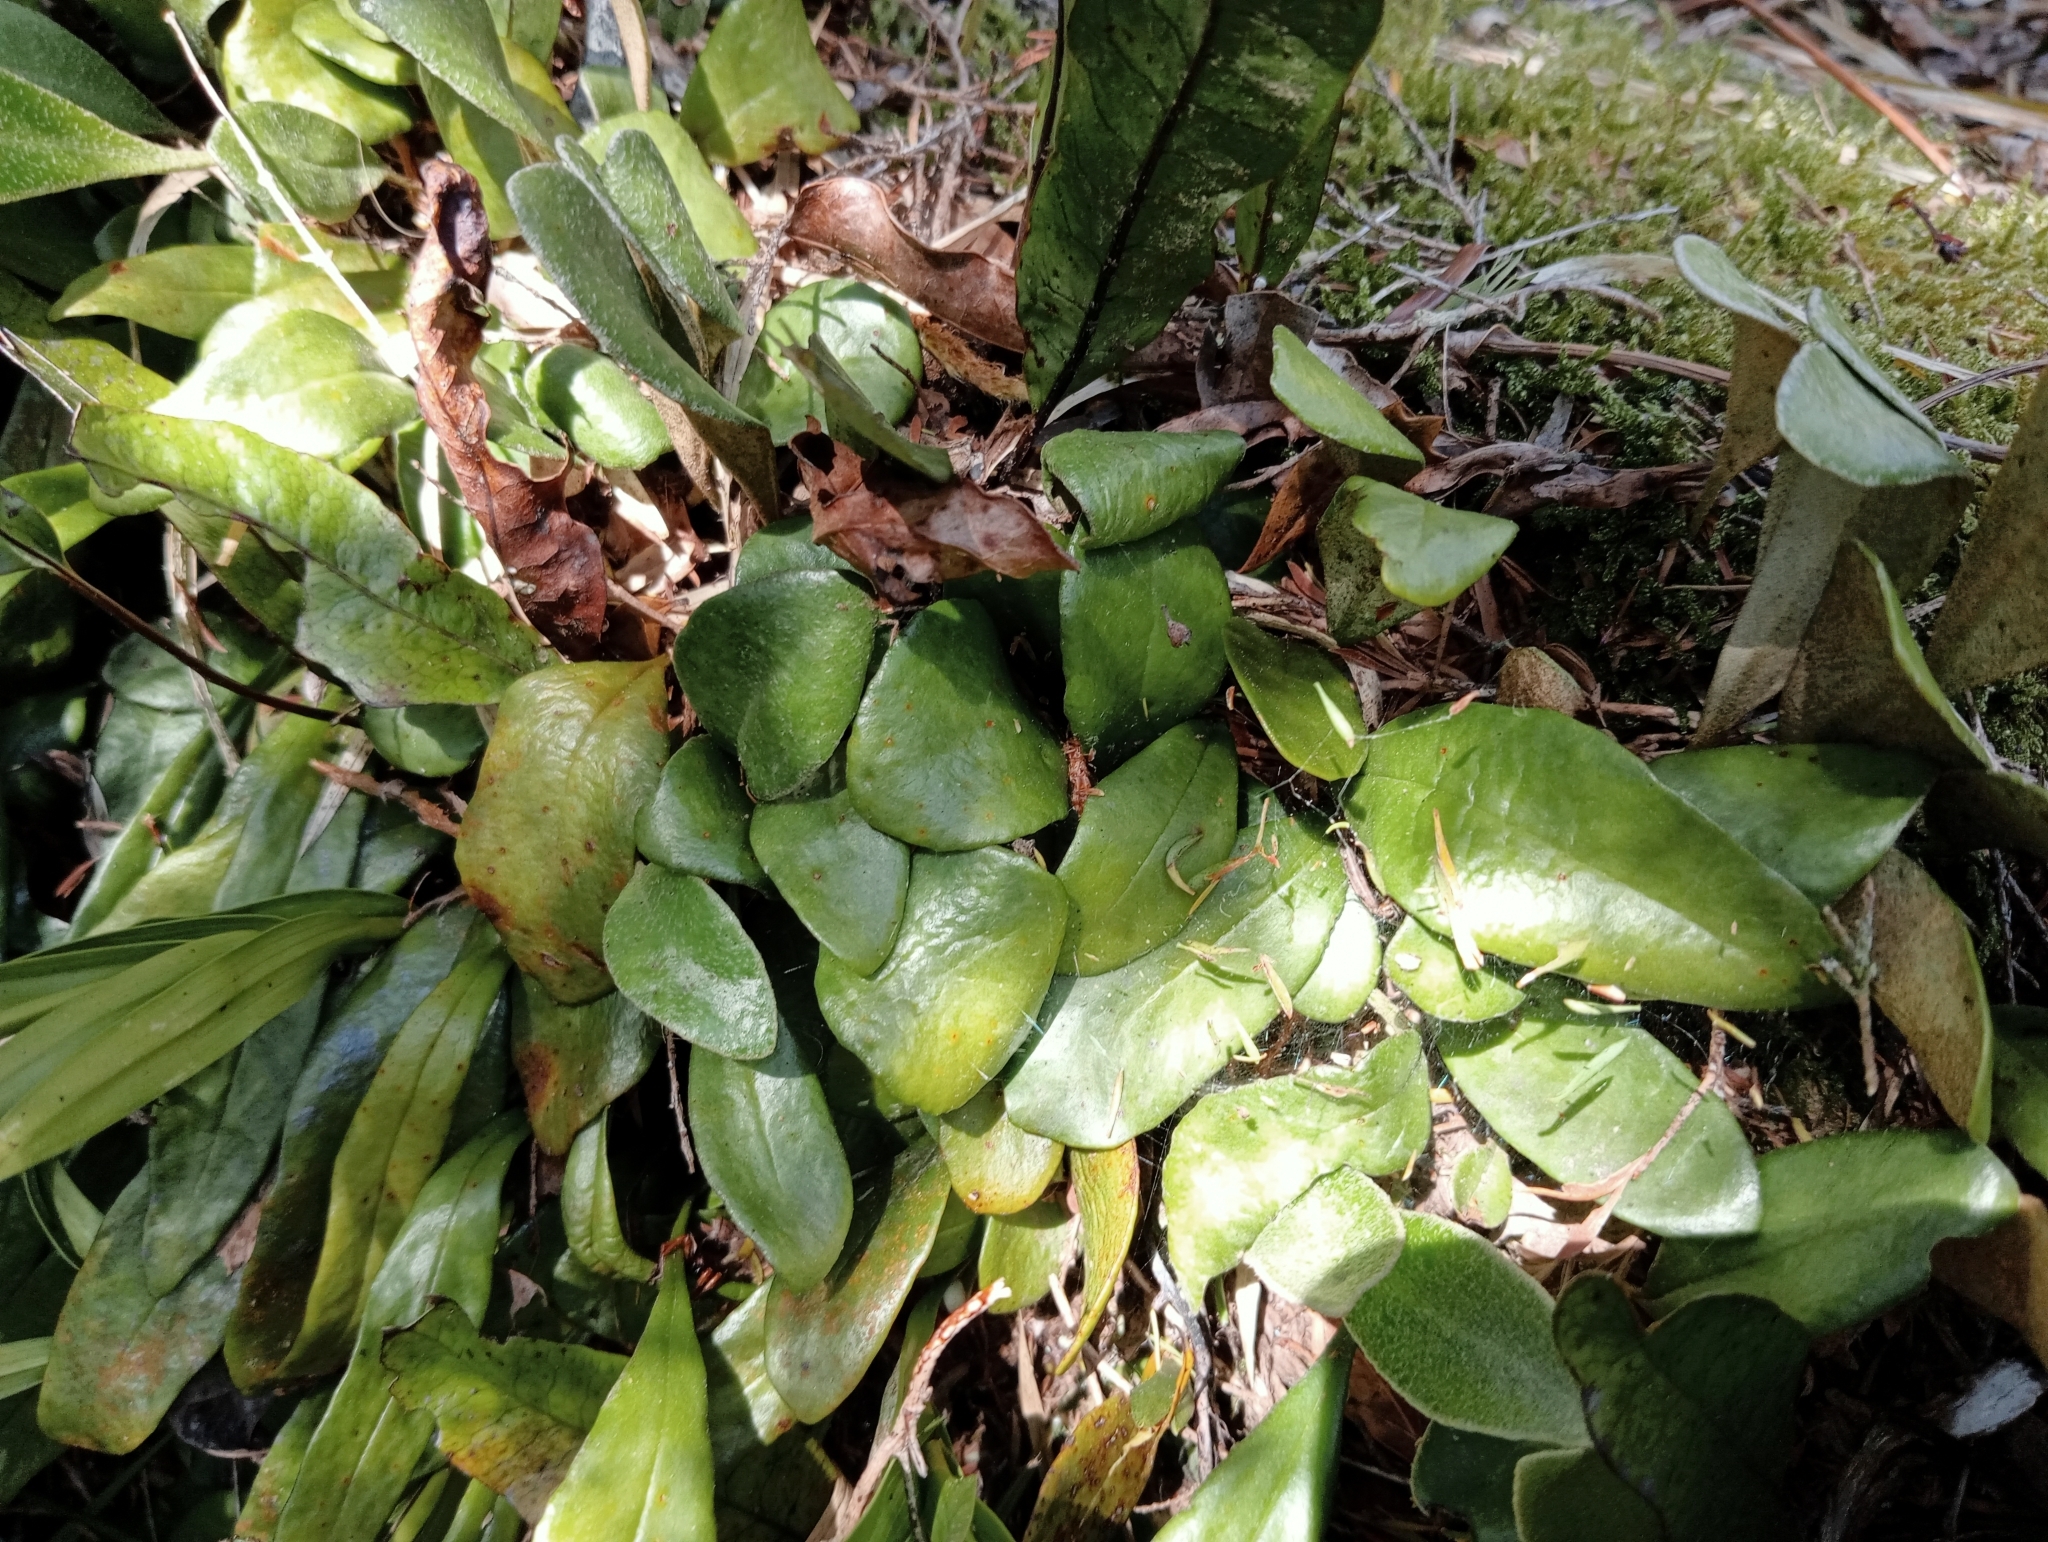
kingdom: Plantae
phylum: Tracheophyta
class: Polypodiopsida
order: Polypodiales
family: Polypodiaceae
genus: Pyrrosia
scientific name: Pyrrosia eleagnifolia
